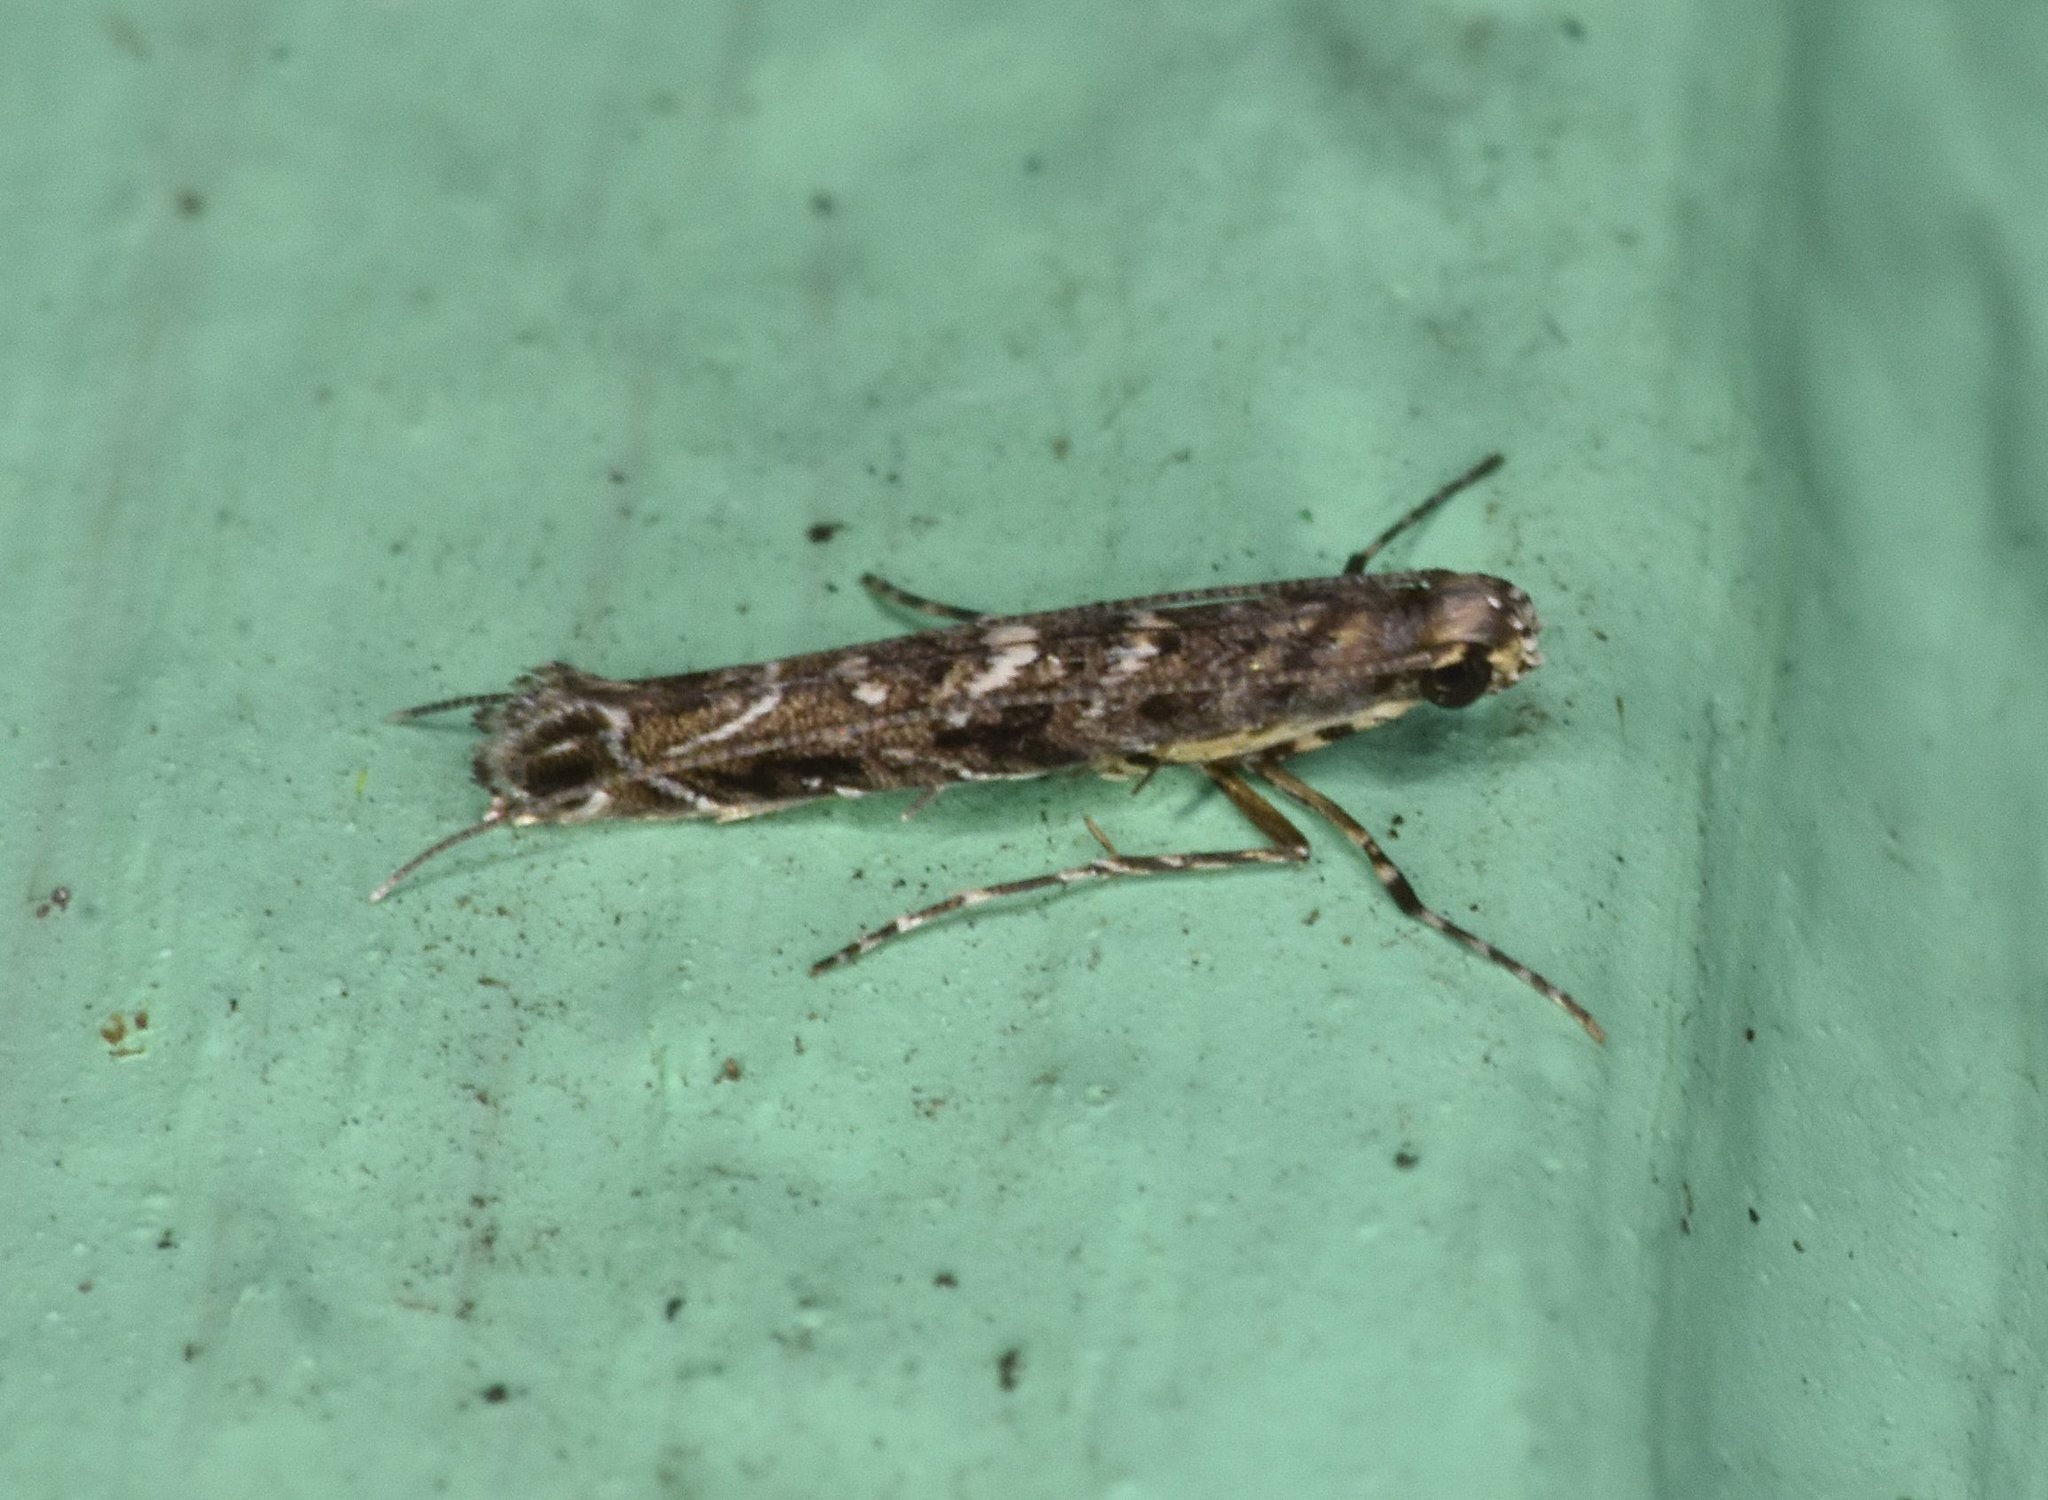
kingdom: Animalia
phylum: Arthropoda
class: Insecta
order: Lepidoptera
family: Gracillariidae
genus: Neurobathra
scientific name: Neurobathra strigifinitella
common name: Finite-channeled leafminer moth
